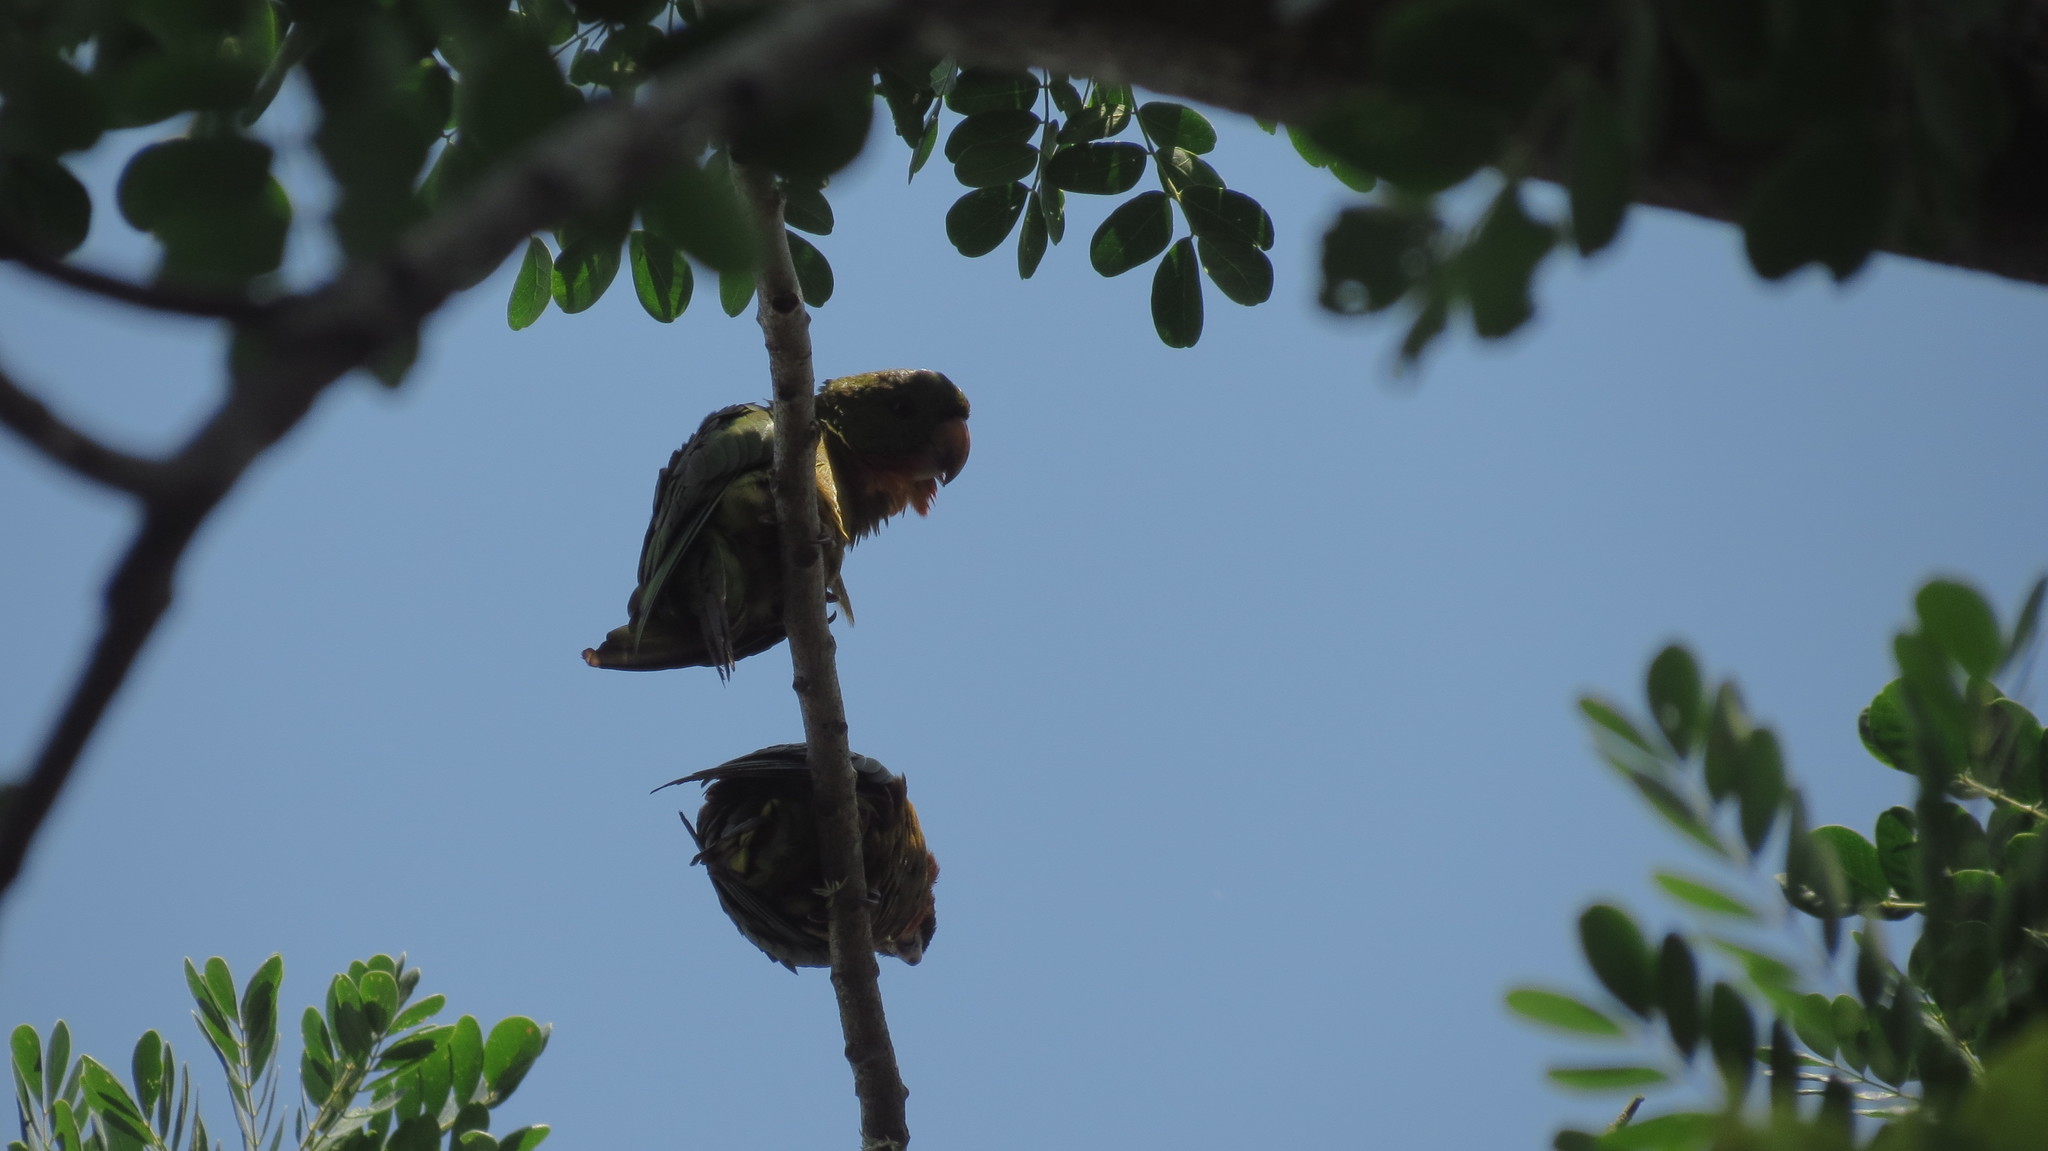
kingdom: Animalia
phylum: Chordata
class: Aves
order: Psittaciformes
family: Psittacidae
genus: Aratinga
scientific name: Aratinga holochlora
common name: Green parakeet
